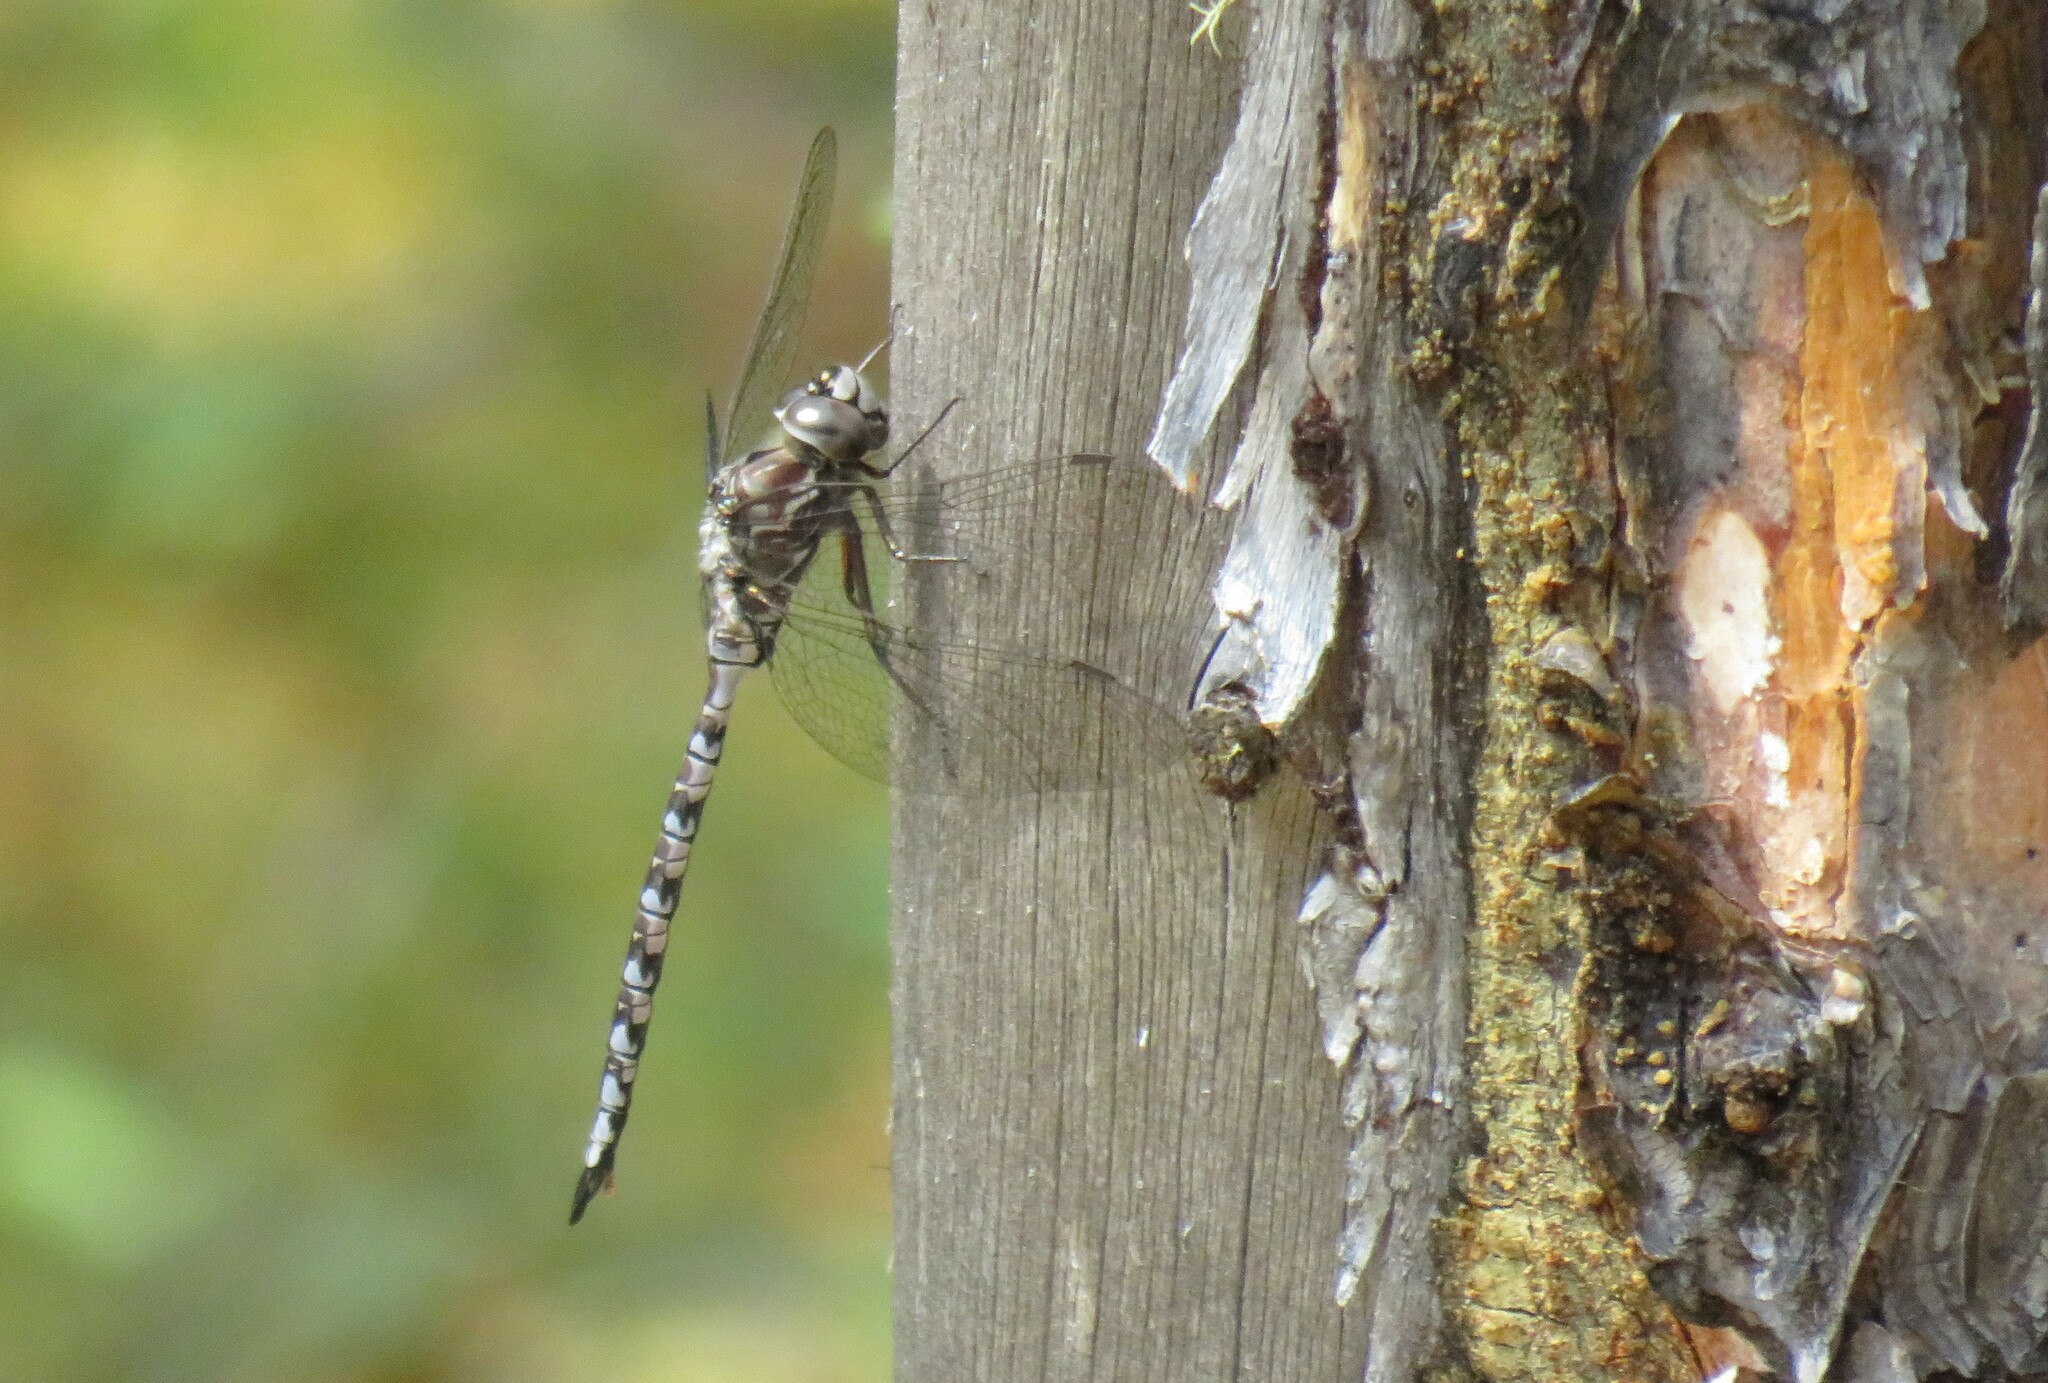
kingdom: Animalia
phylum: Arthropoda
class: Insecta
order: Odonata
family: Aeshnidae
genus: Aeshna
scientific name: Aeshna sitchensis
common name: Zigzag darner
